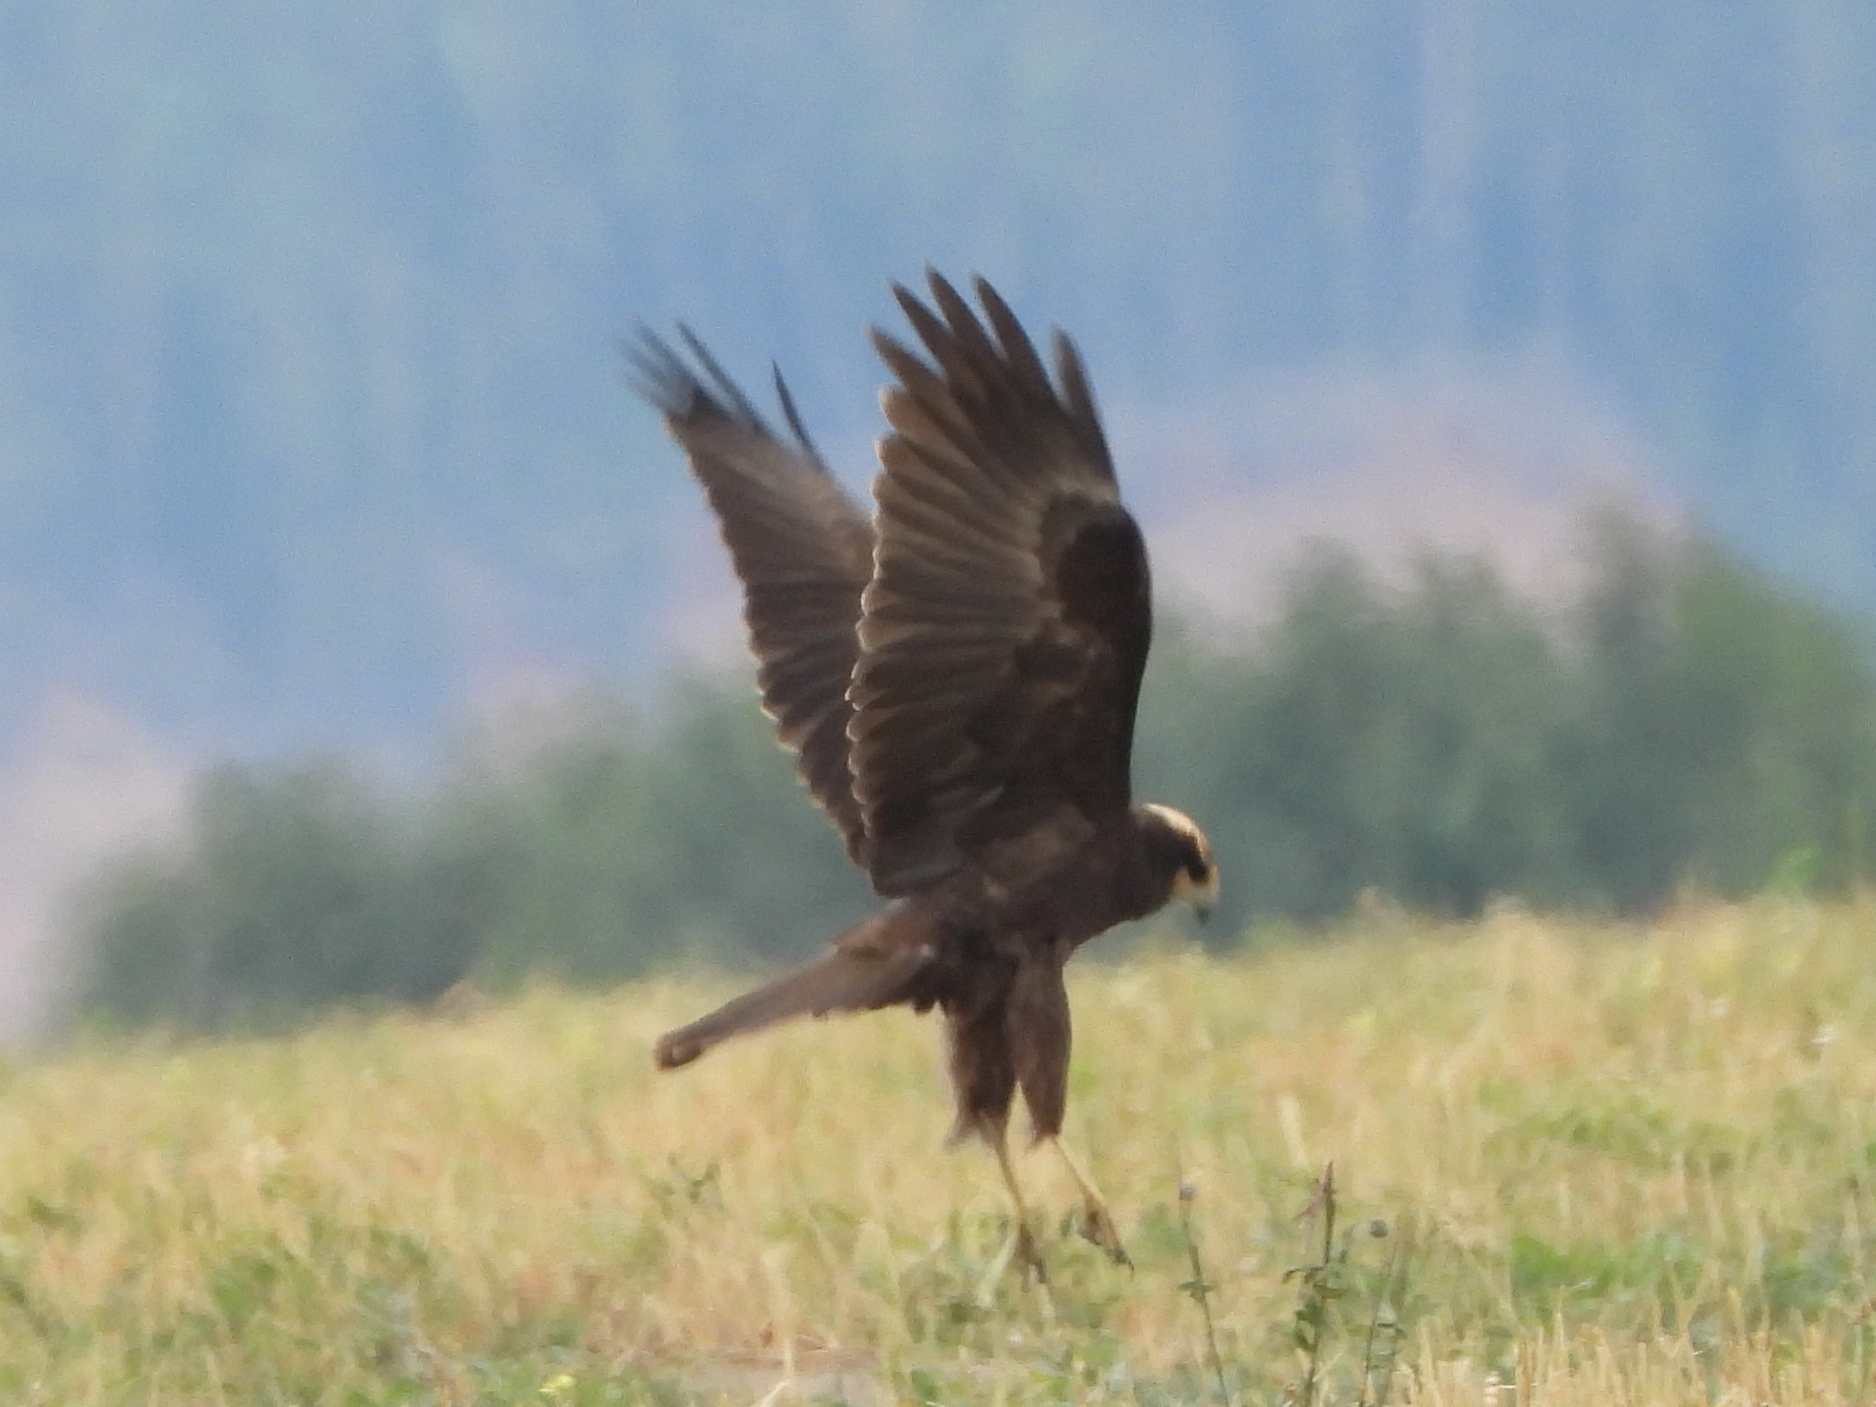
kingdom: Animalia
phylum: Chordata
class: Aves
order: Accipitriformes
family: Accipitridae
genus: Circus
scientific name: Circus aeruginosus
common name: Western marsh harrier
